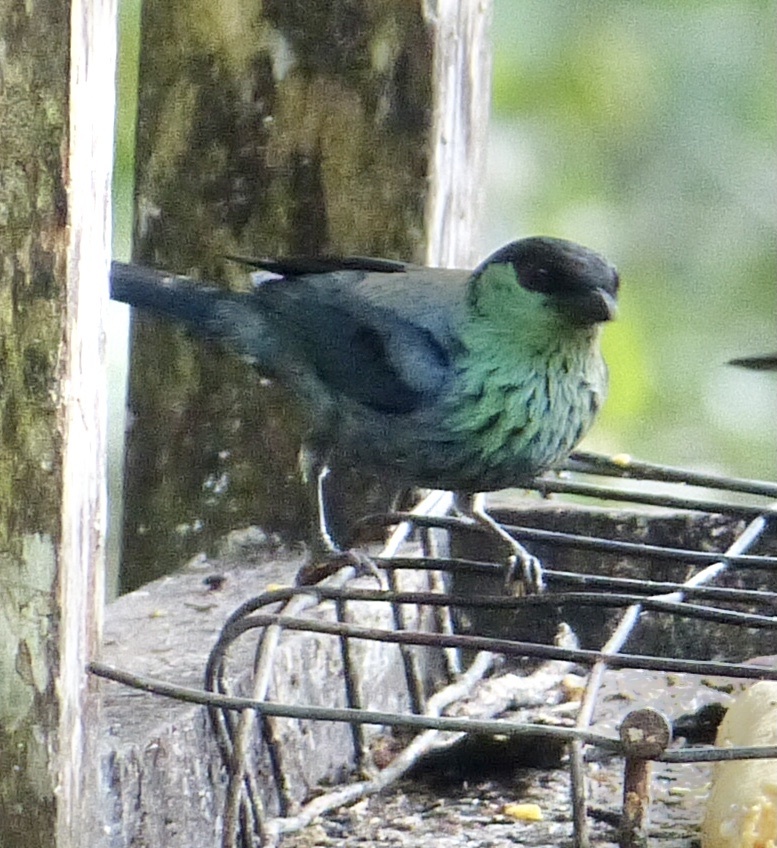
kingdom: Animalia
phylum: Chordata
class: Aves
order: Passeriformes
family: Thraupidae
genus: Stilpnia
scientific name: Stilpnia heinei
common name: Black-capped tanager
